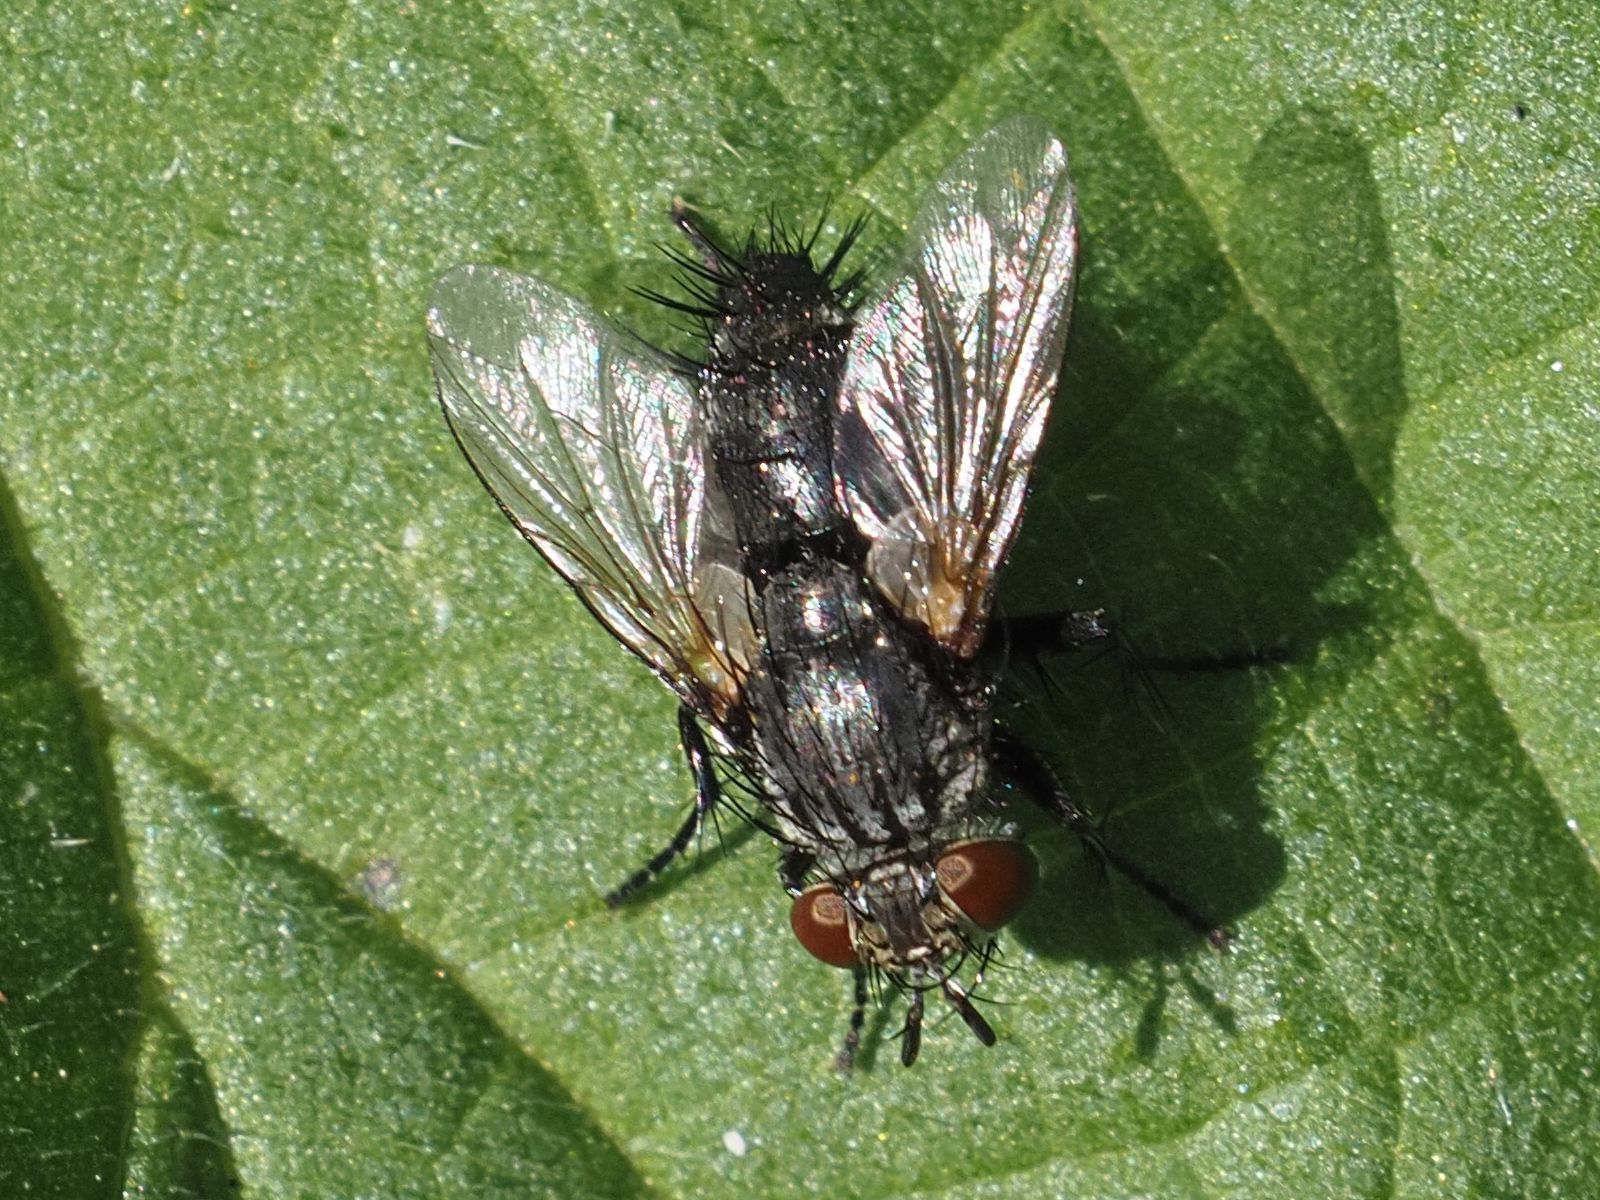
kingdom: Animalia
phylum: Arthropoda
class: Insecta
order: Diptera
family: Tachinidae
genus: Voria
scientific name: Voria ruralis
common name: Parasitic fly
